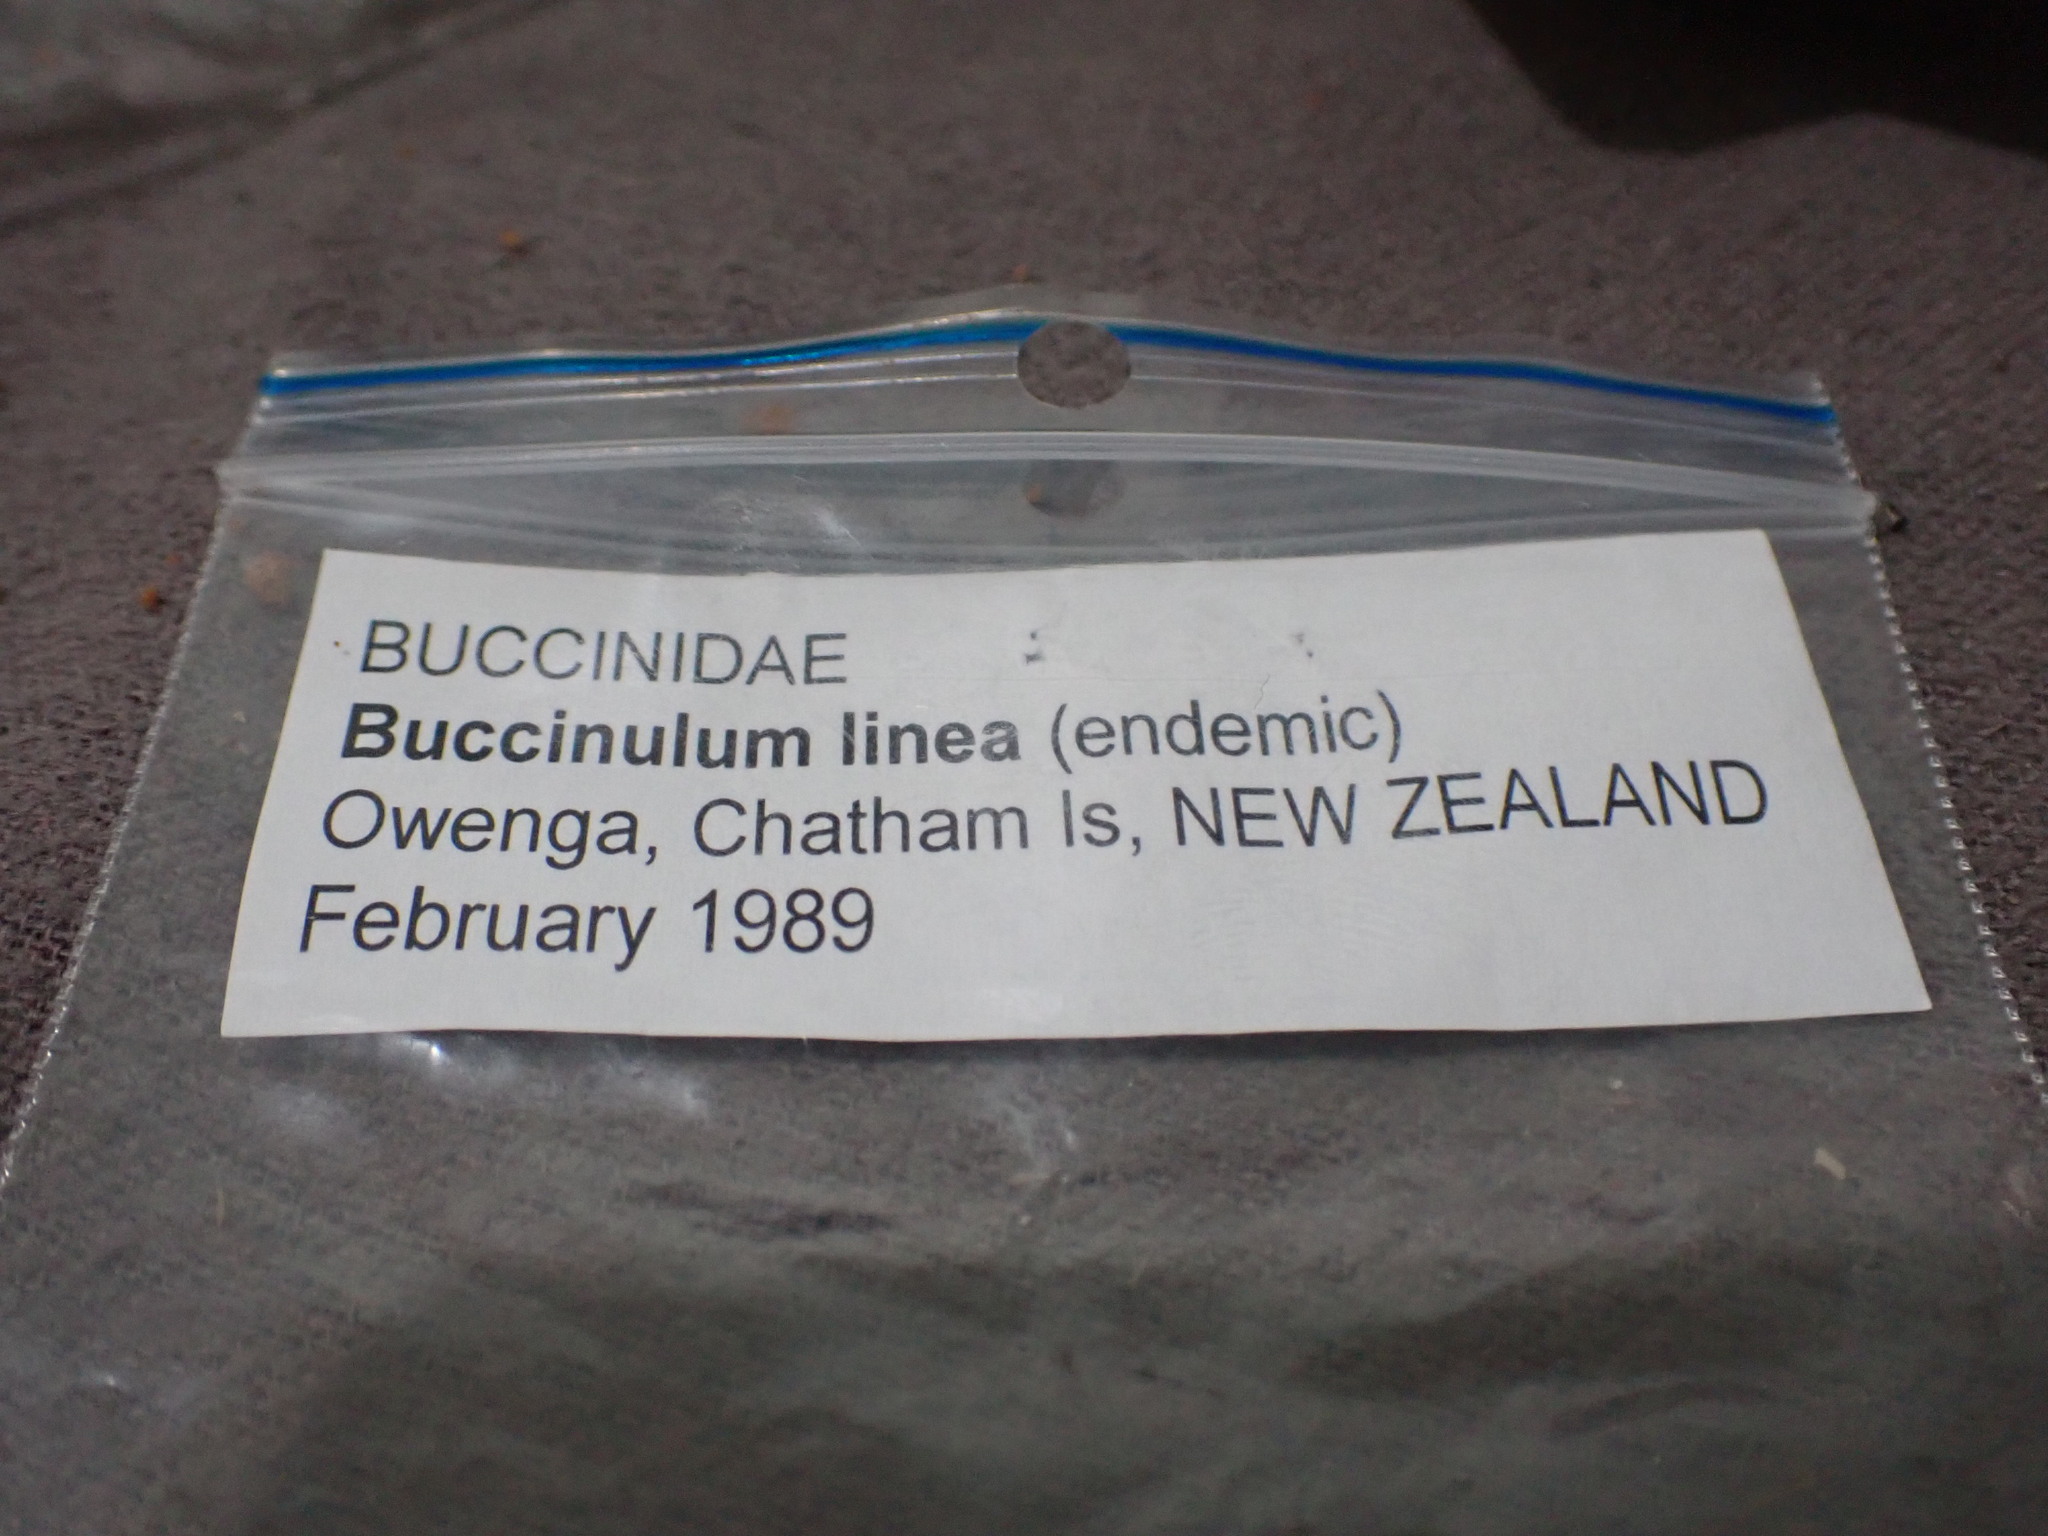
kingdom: Animalia
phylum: Mollusca
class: Gastropoda
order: Neogastropoda
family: Tudiclidae
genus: Buccinulum
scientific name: Buccinulum linea
